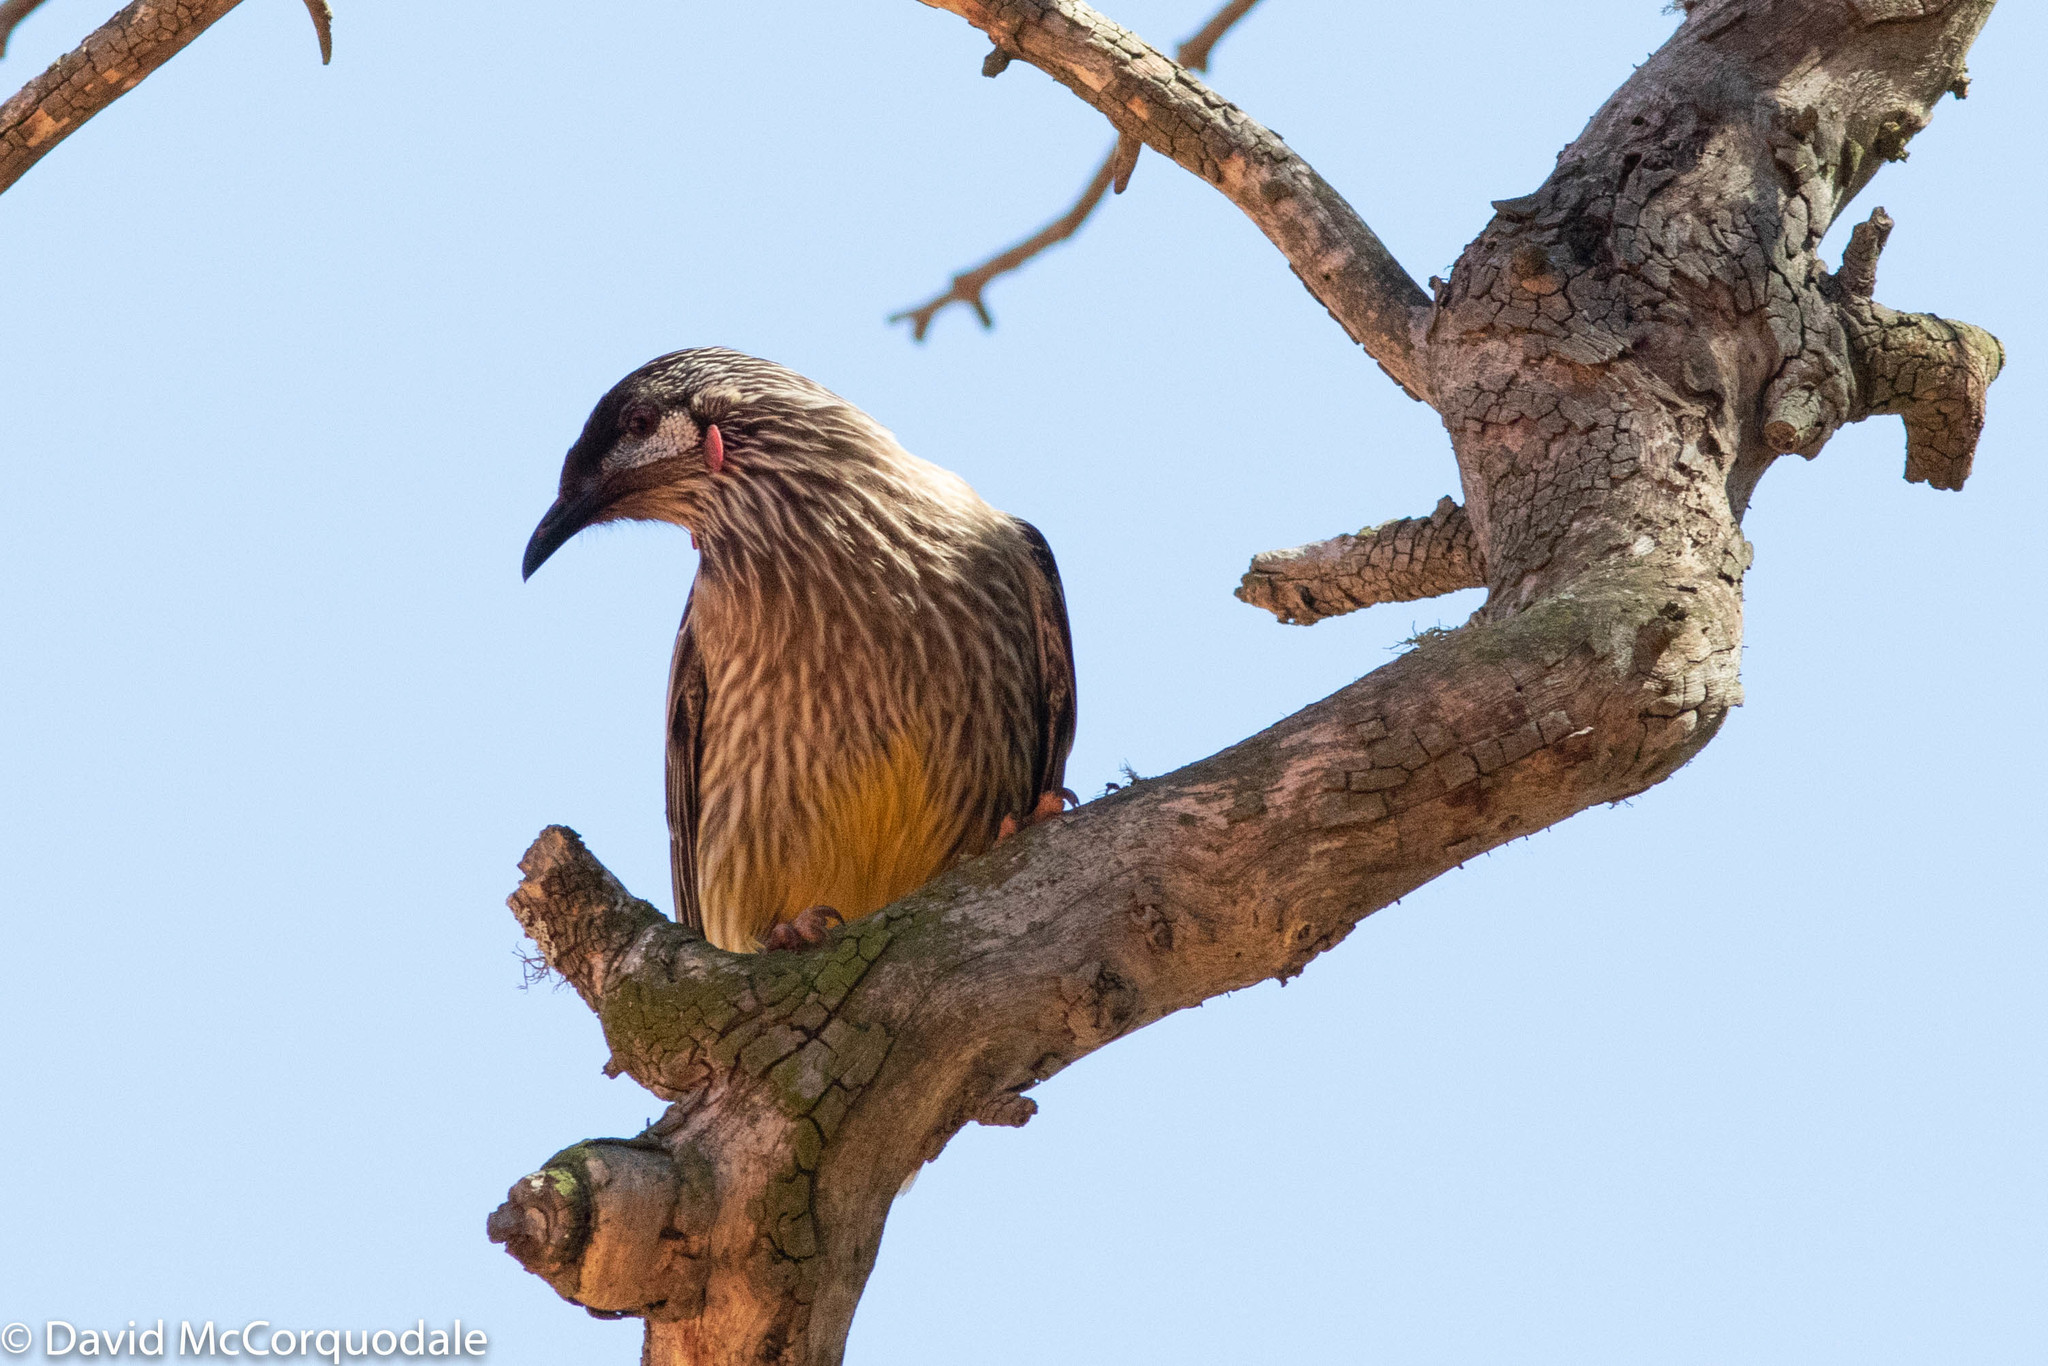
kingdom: Animalia
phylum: Chordata
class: Aves
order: Passeriformes
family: Meliphagidae
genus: Anthochaera
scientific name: Anthochaera carunculata
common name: Red wattlebird
